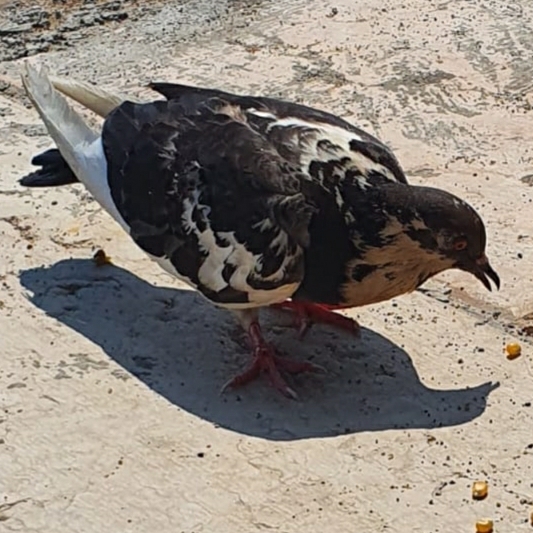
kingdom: Animalia
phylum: Chordata
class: Aves
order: Columbiformes
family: Columbidae
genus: Columba
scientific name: Columba livia
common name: Rock pigeon
